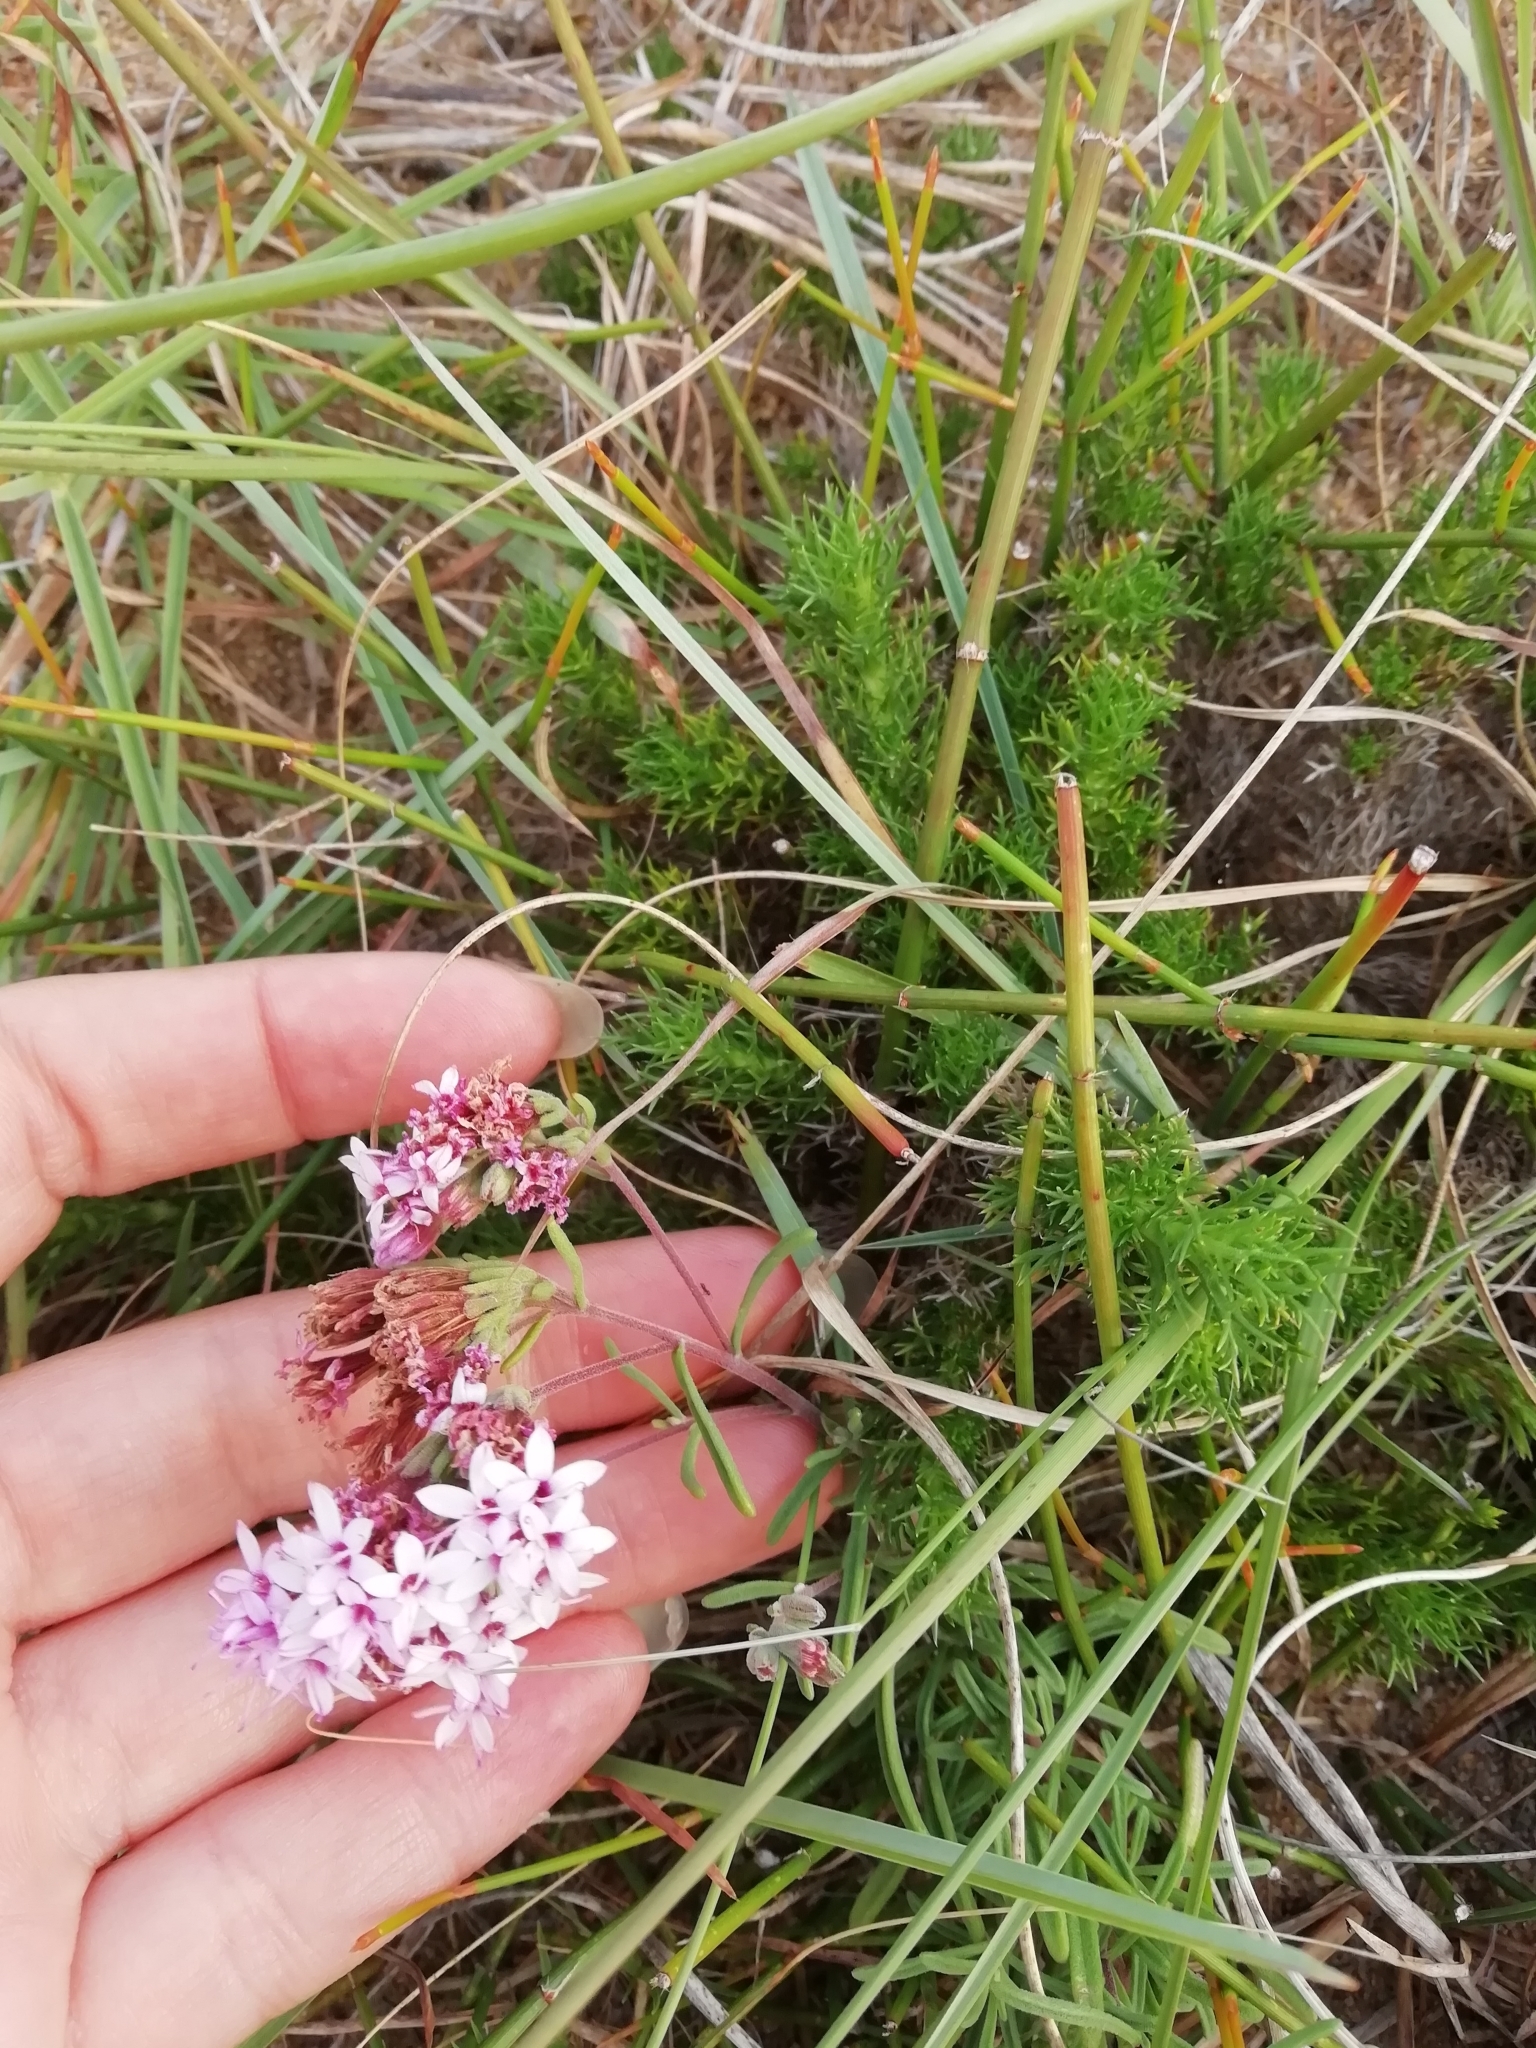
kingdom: Plantae
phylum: Tracheophyta
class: Magnoliopsida
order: Asterales
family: Asteraceae
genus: Stevia
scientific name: Stevia satureifolia
